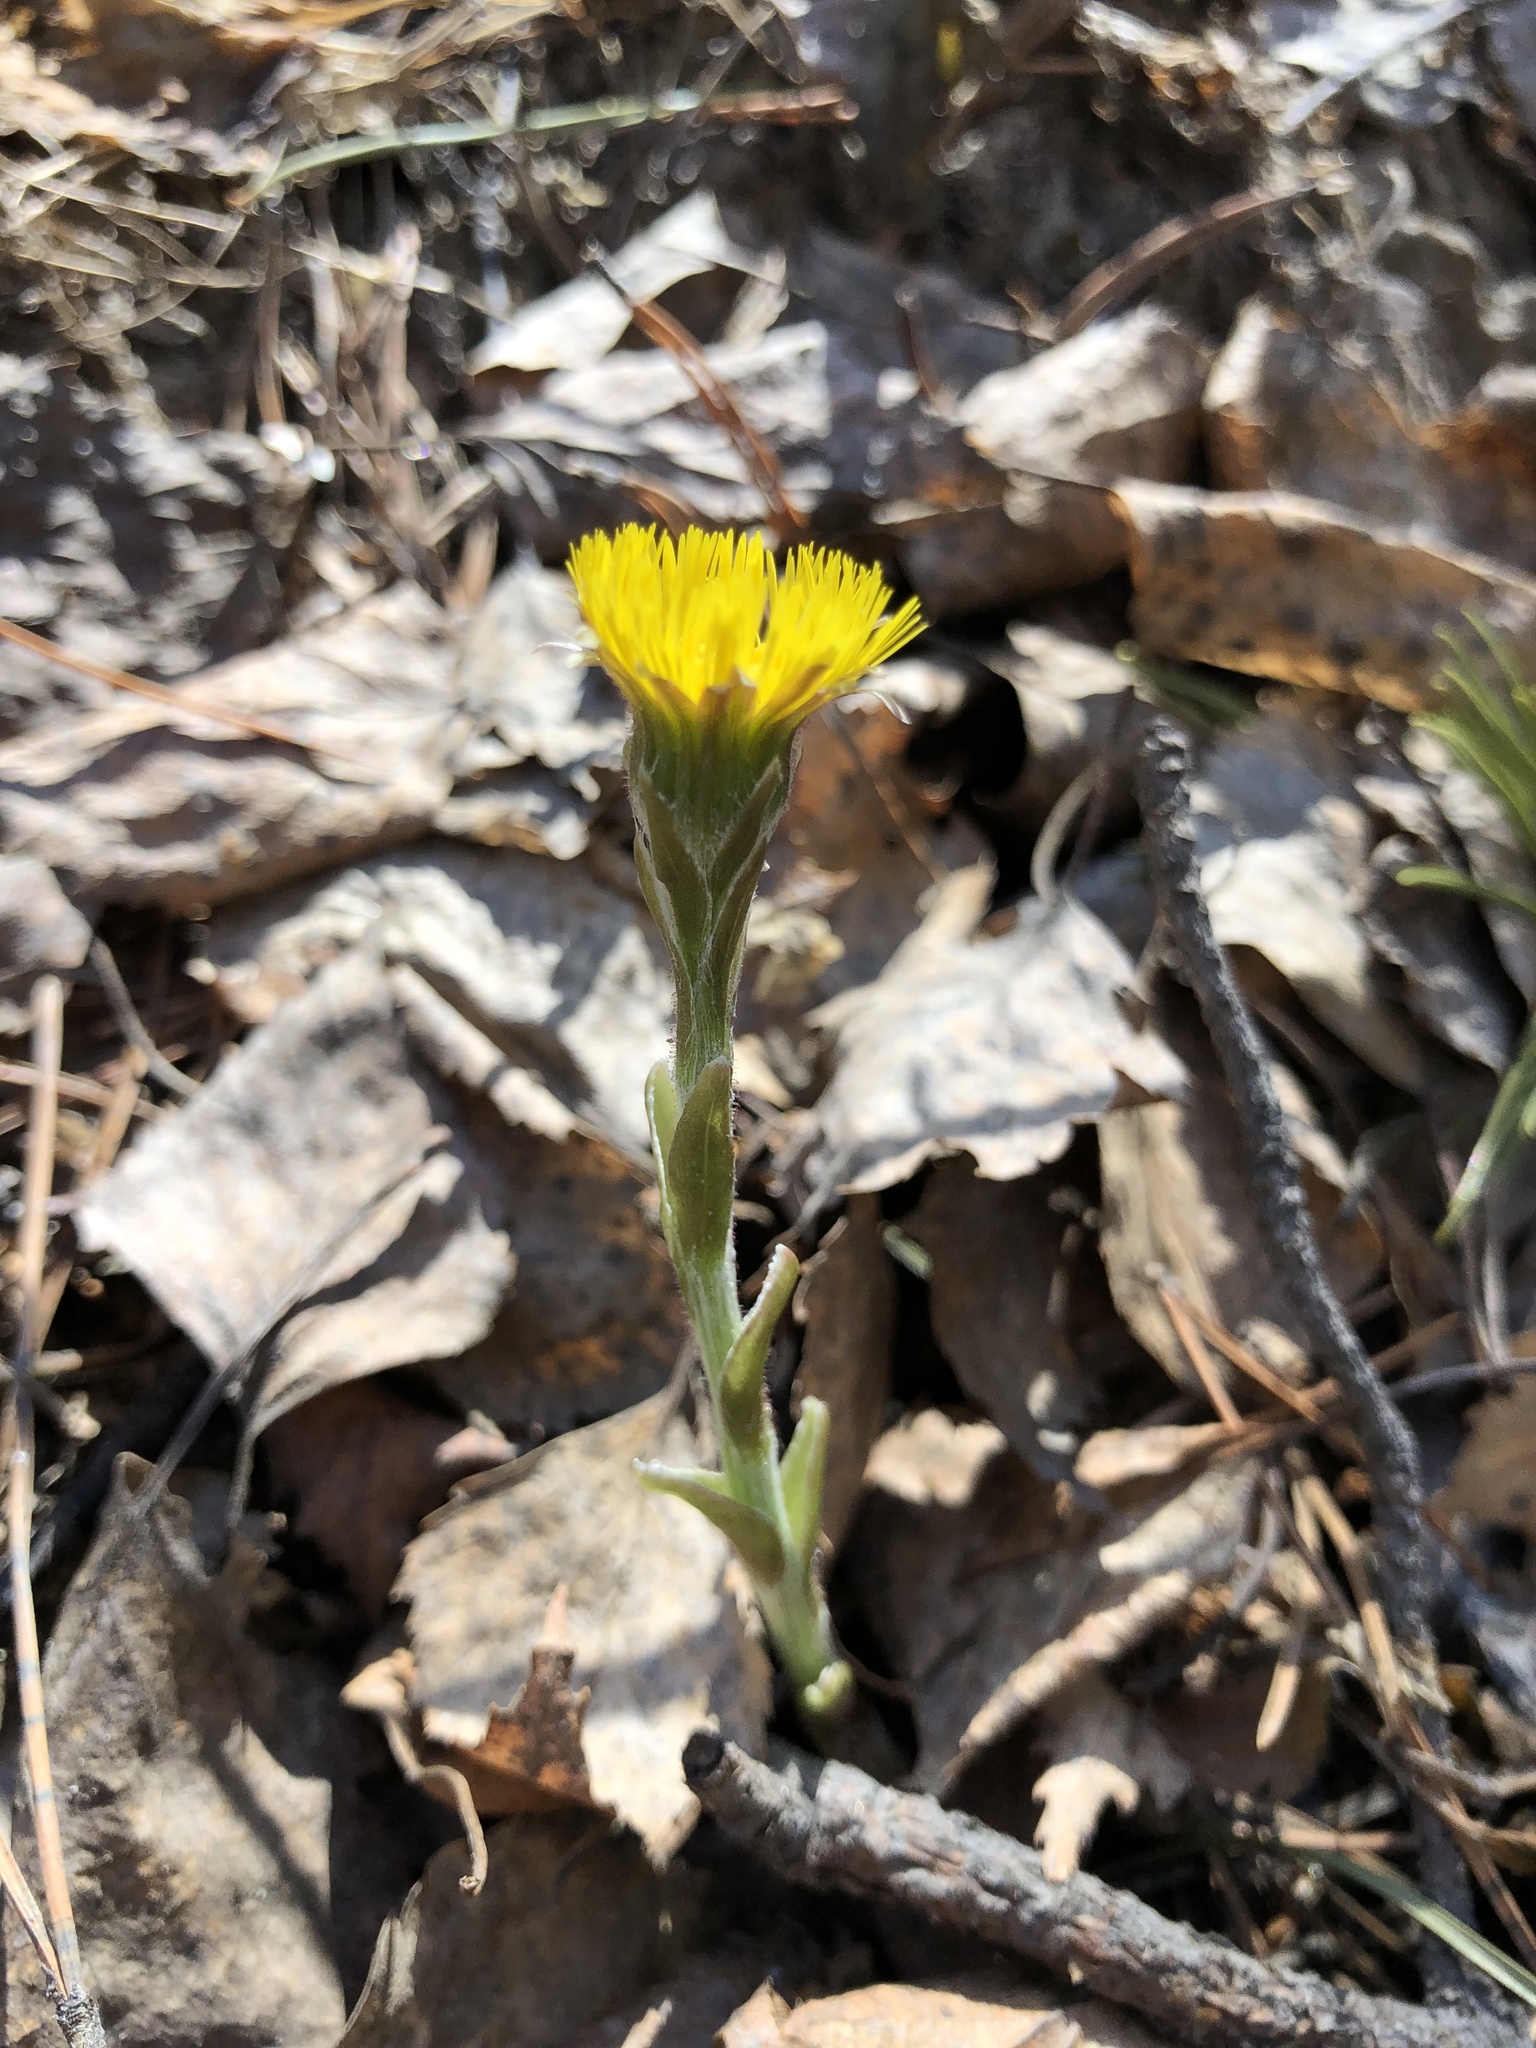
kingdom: Plantae
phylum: Tracheophyta
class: Magnoliopsida
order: Asterales
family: Asteraceae
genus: Tussilago
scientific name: Tussilago farfara
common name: Coltsfoot
